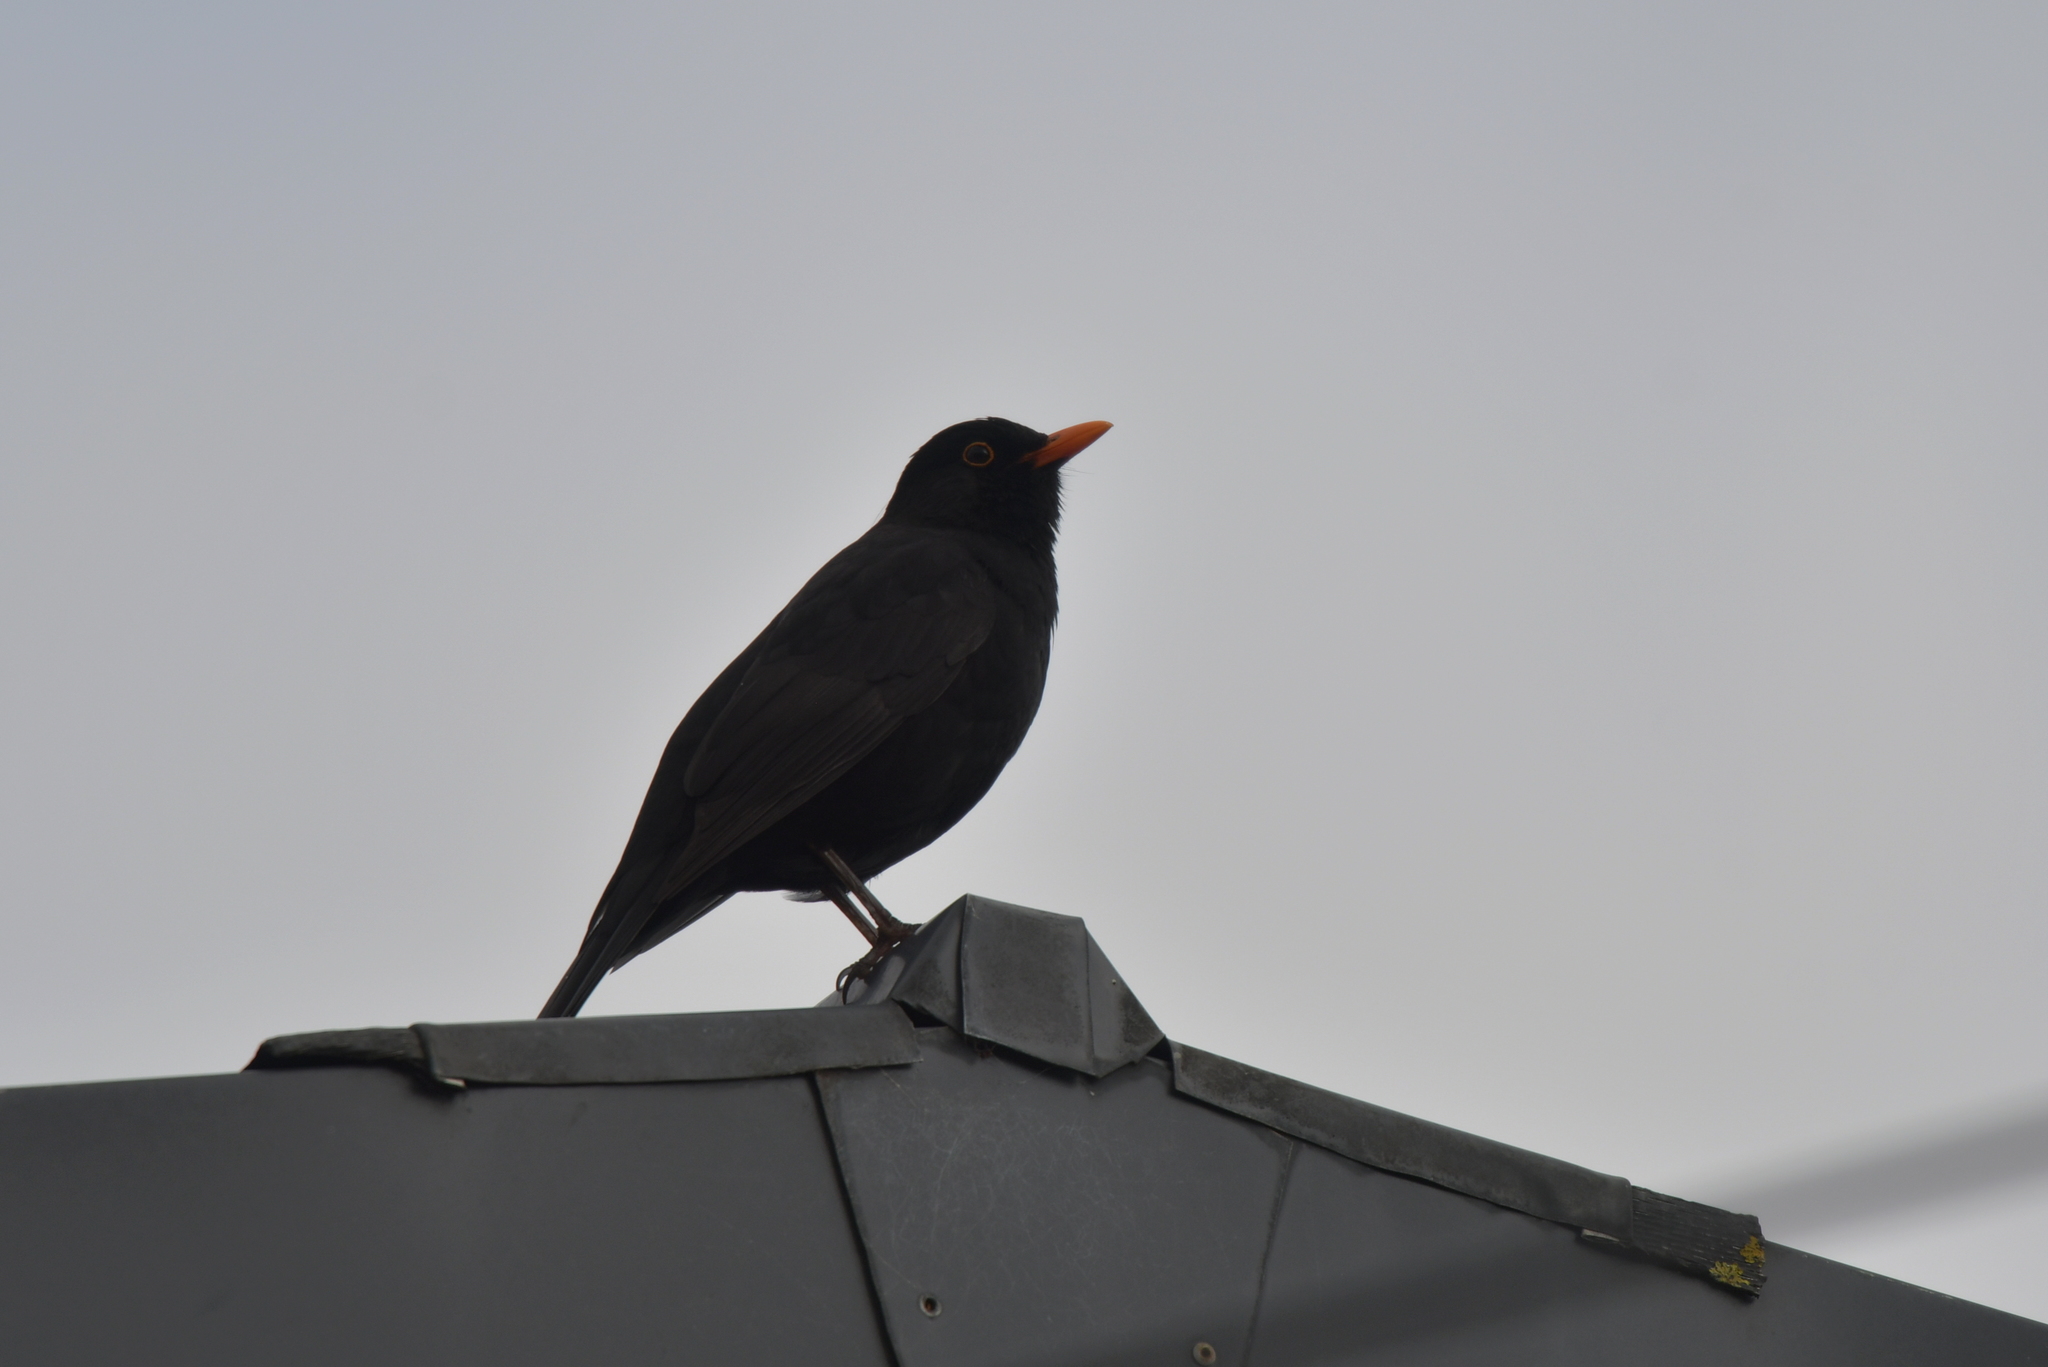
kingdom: Animalia
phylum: Chordata
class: Aves
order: Passeriformes
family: Turdidae
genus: Turdus
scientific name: Turdus merula
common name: Common blackbird
